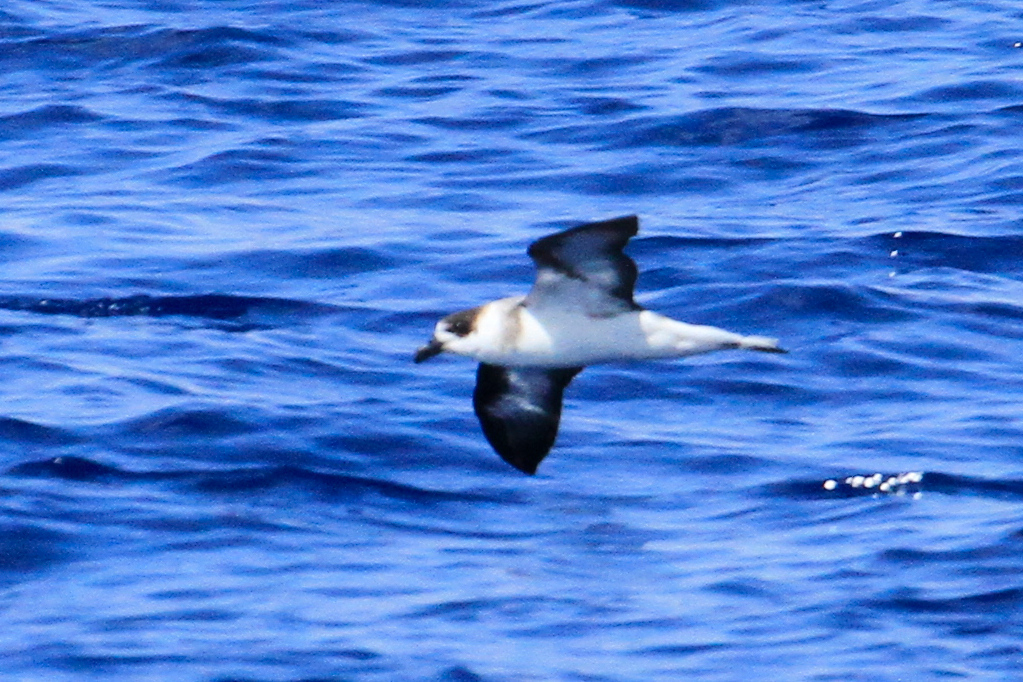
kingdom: Animalia
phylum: Chordata
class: Aves
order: Procellariiformes
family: Procellariidae
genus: Pterodroma
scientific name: Pterodroma hasitata
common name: Black-capped petrel
